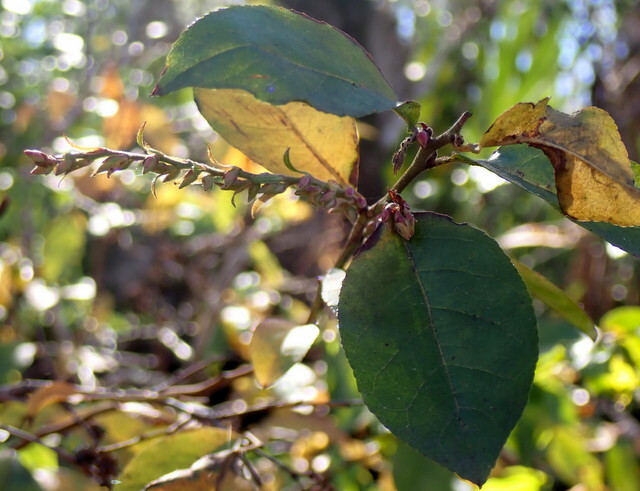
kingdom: Plantae
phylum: Tracheophyta
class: Magnoliopsida
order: Ericales
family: Ericaceae
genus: Eubotrys
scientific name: Eubotrys racemosa
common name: Fetterbush
